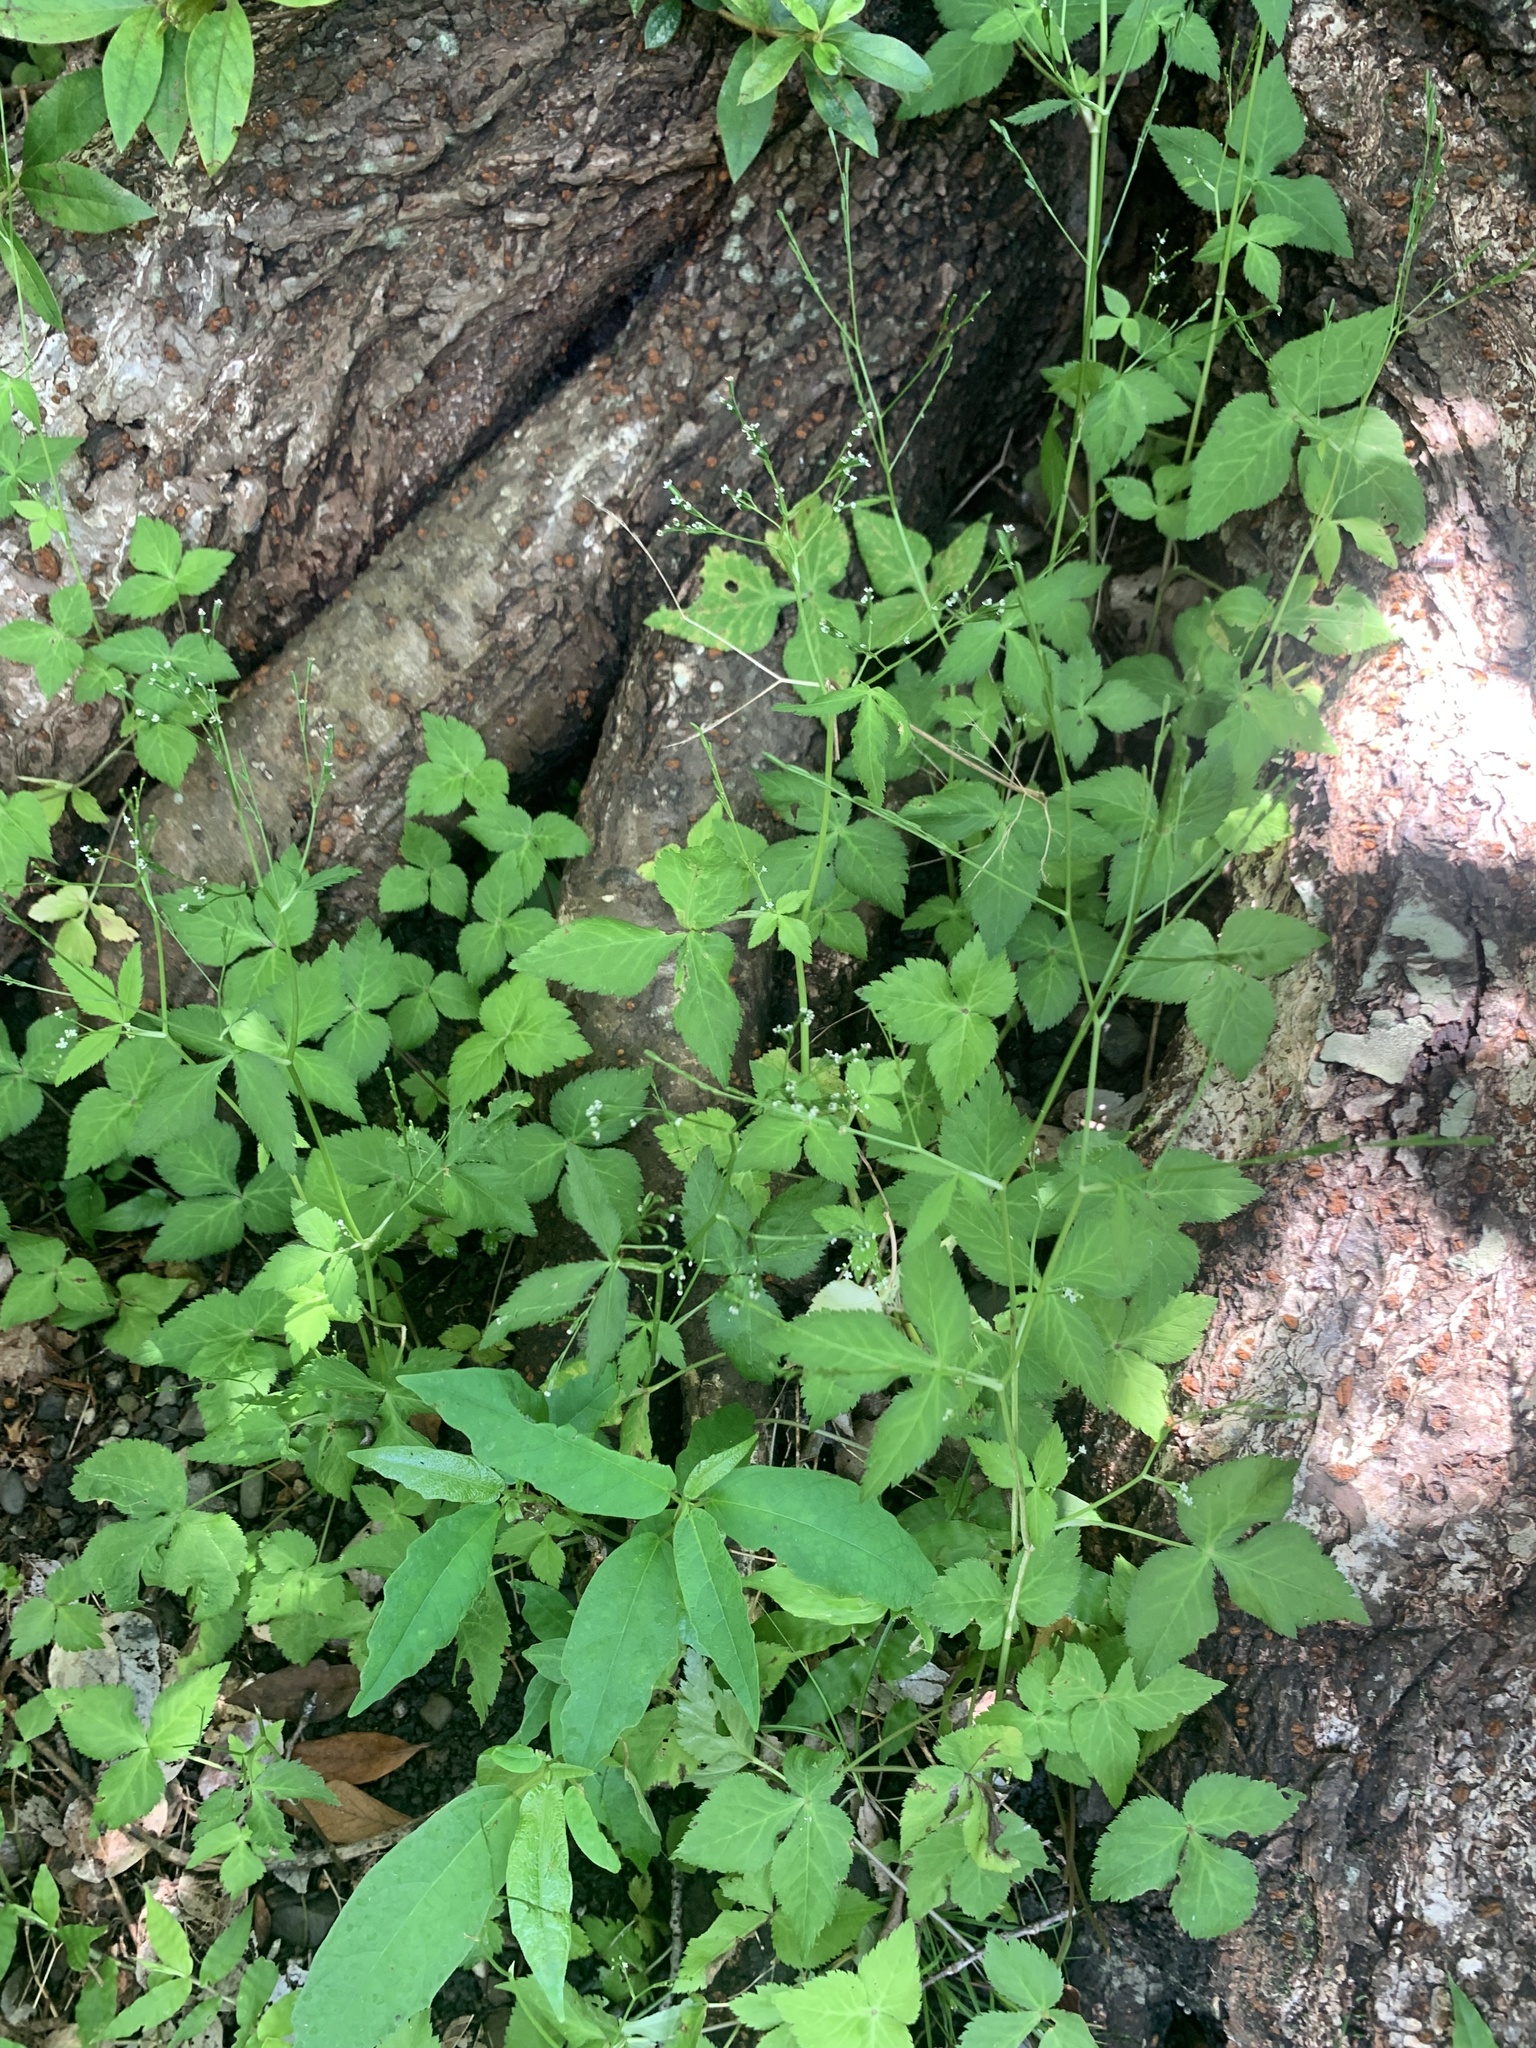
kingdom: Plantae
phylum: Tracheophyta
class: Magnoliopsida
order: Apiales
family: Apiaceae
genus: Cryptotaenia
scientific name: Cryptotaenia japonica
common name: Japanese cryptotaenia
